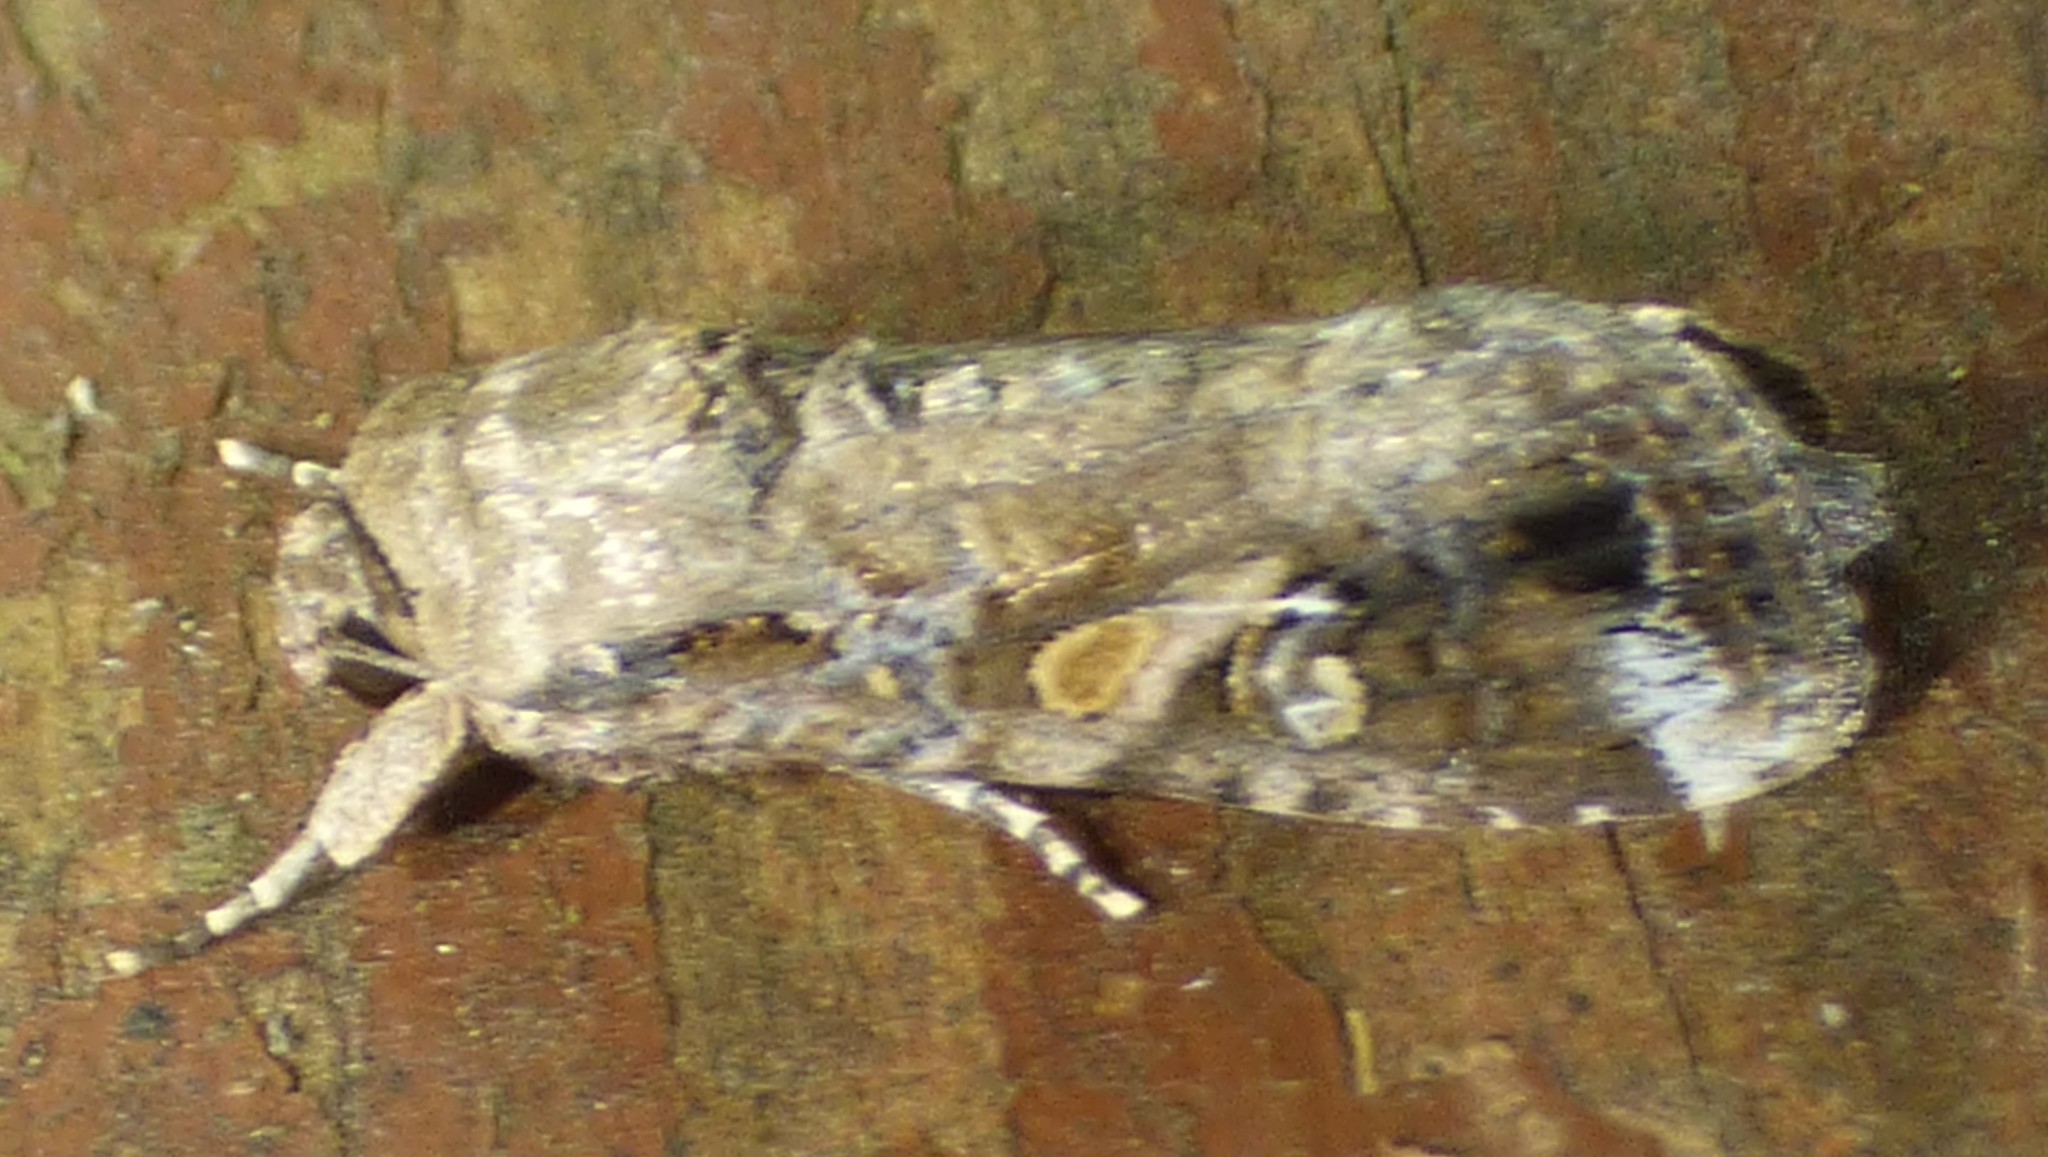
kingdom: Animalia
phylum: Arthropoda
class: Insecta
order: Lepidoptera
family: Noctuidae
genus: Spodoptera
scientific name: Spodoptera frugiperda
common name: Fall armyworm
